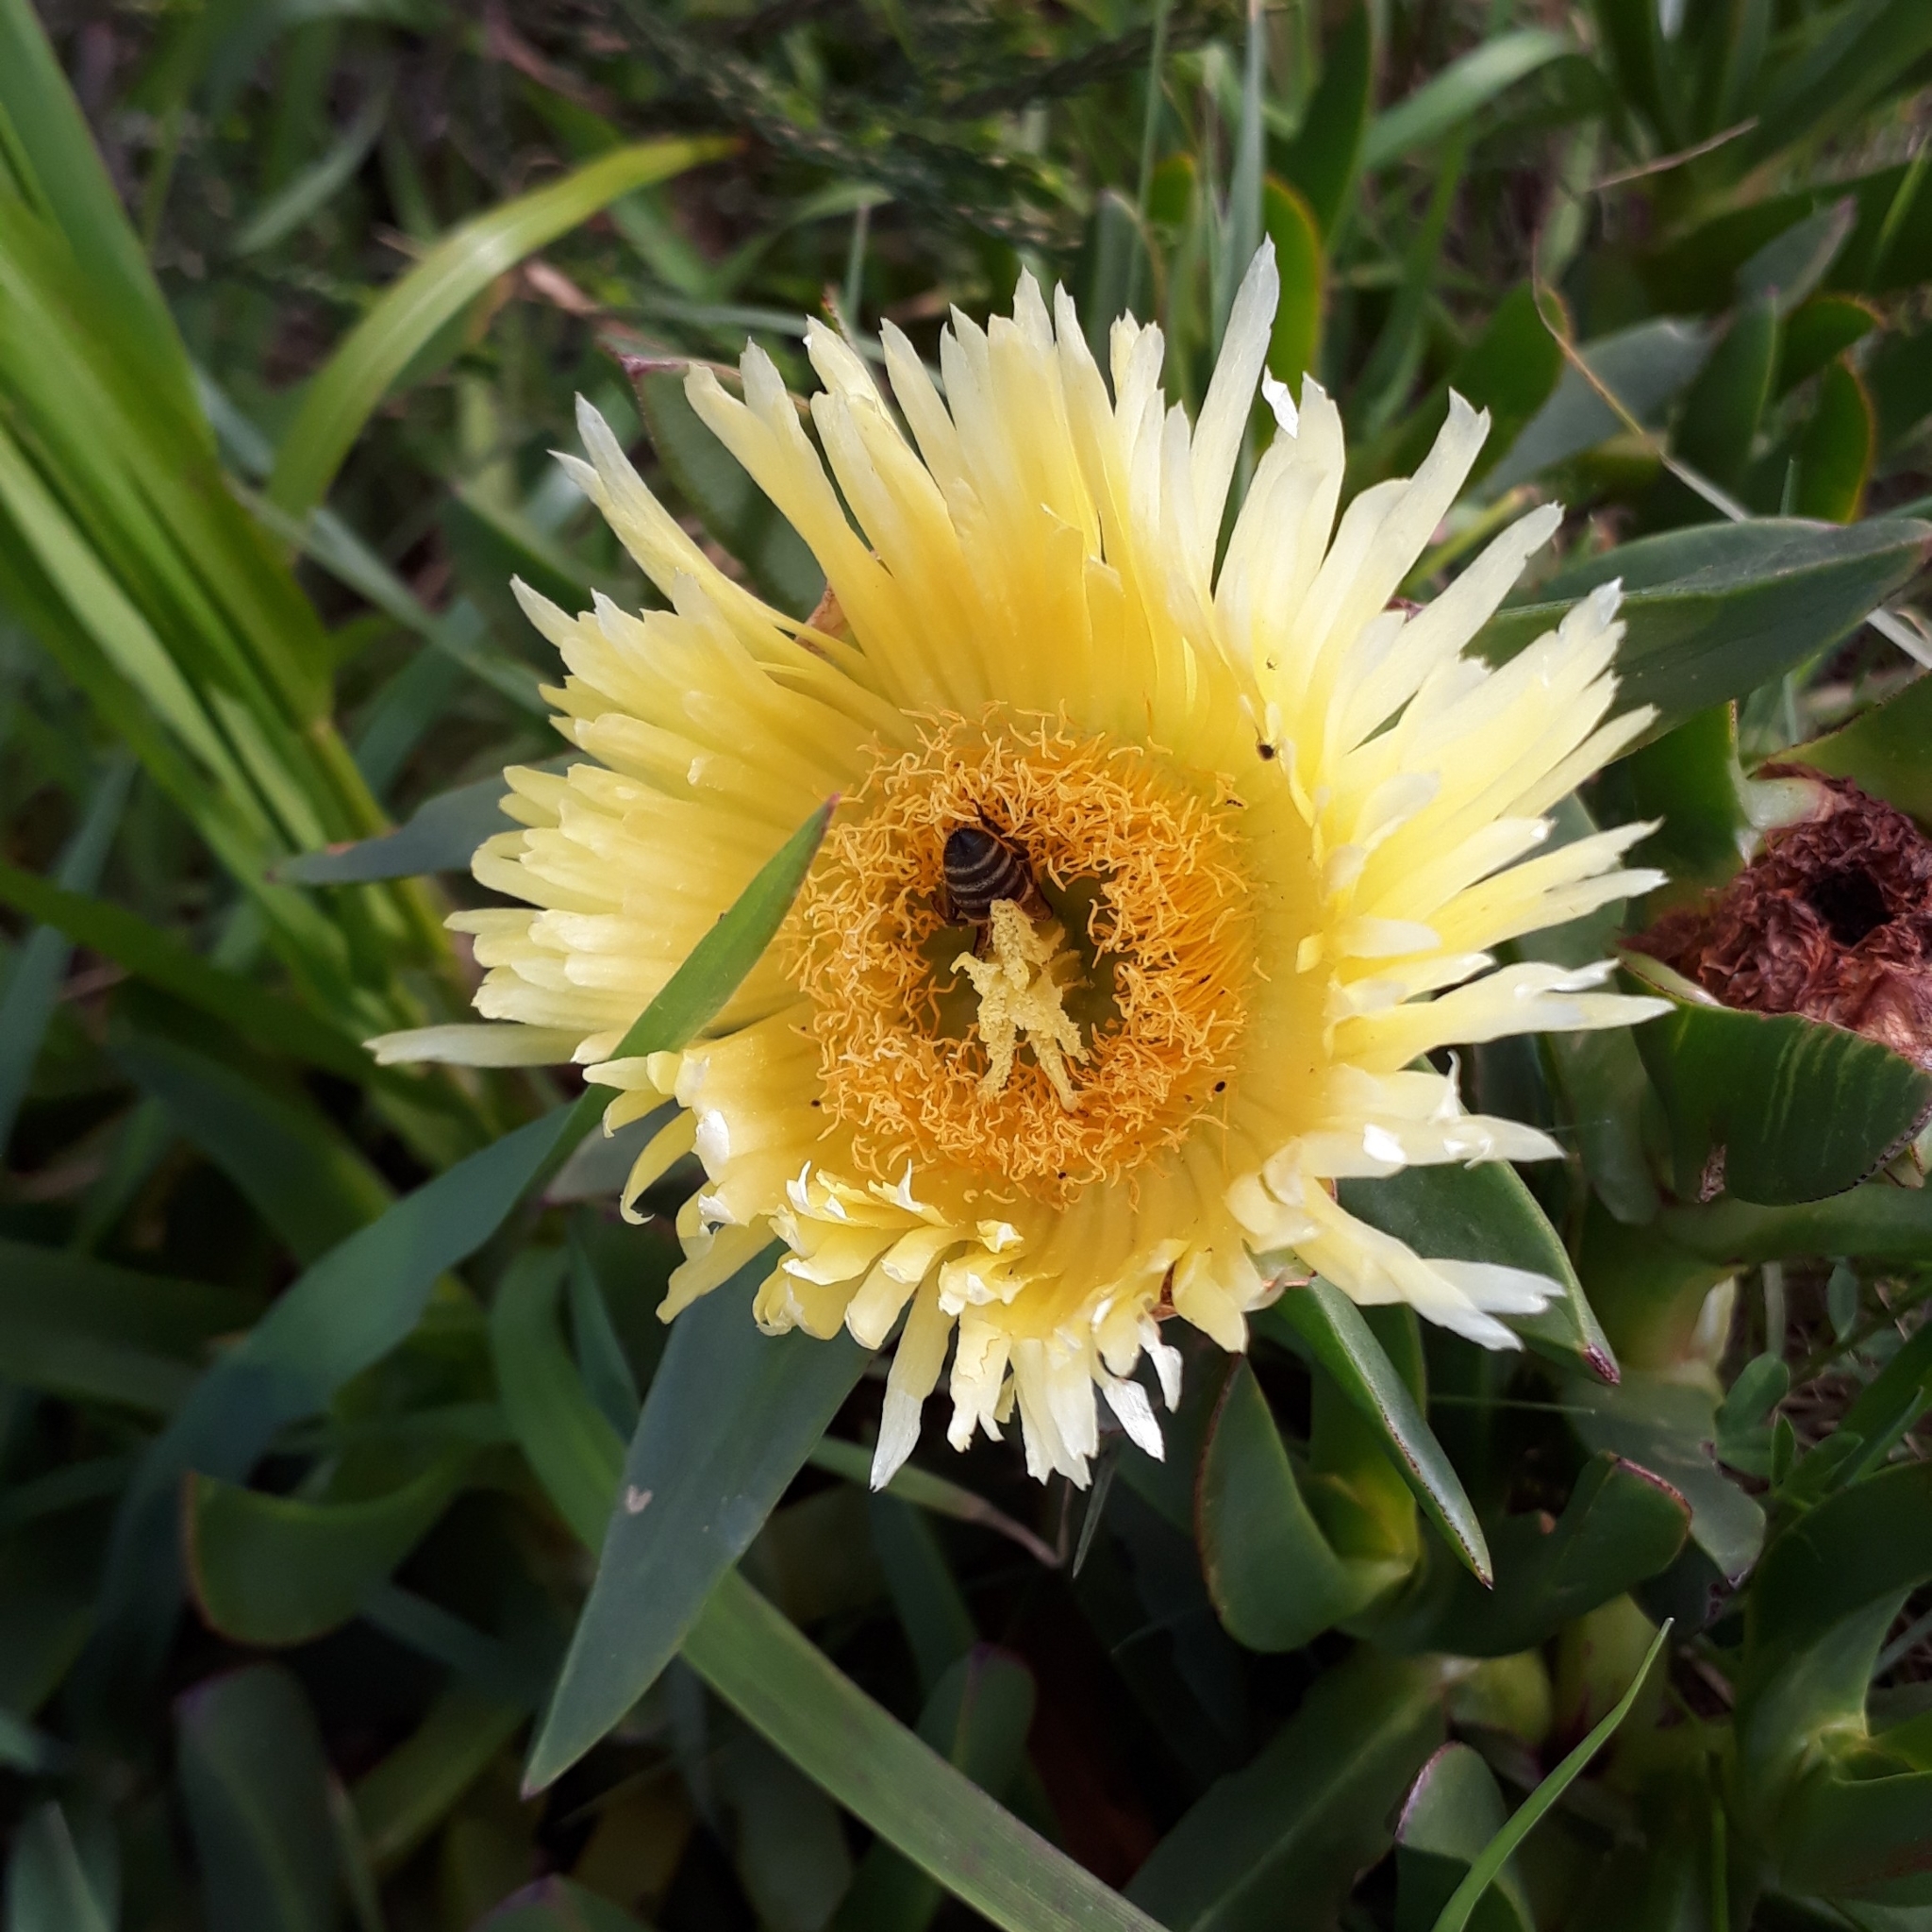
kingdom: Plantae
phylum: Tracheophyta
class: Magnoliopsida
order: Caryophyllales
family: Aizoaceae
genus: Carpobrotus
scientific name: Carpobrotus edulis
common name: Hottentot-fig
